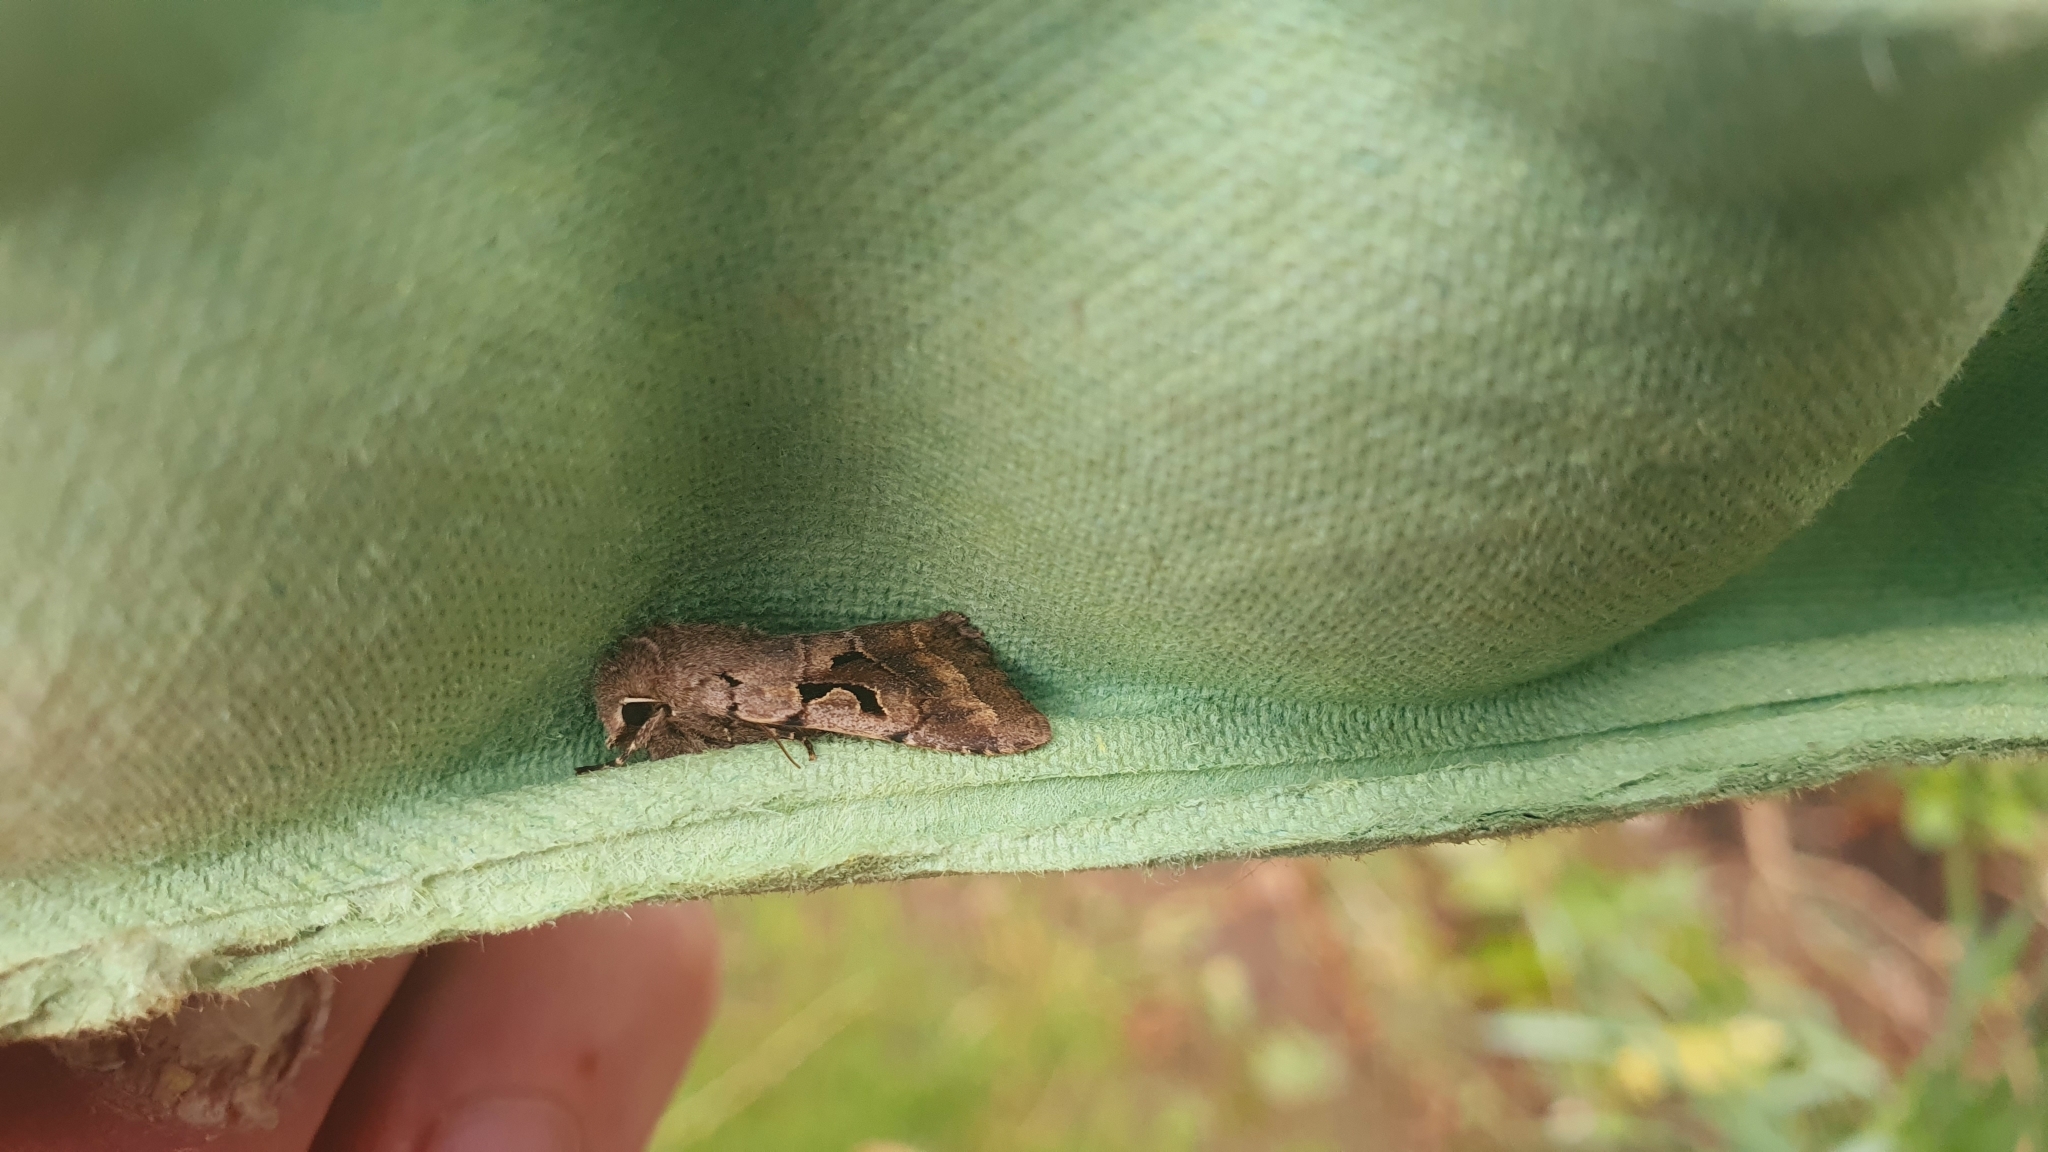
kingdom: Animalia
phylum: Arthropoda
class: Insecta
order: Lepidoptera
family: Noctuidae
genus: Orthosia
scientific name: Orthosia gothica
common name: Hebrew character
